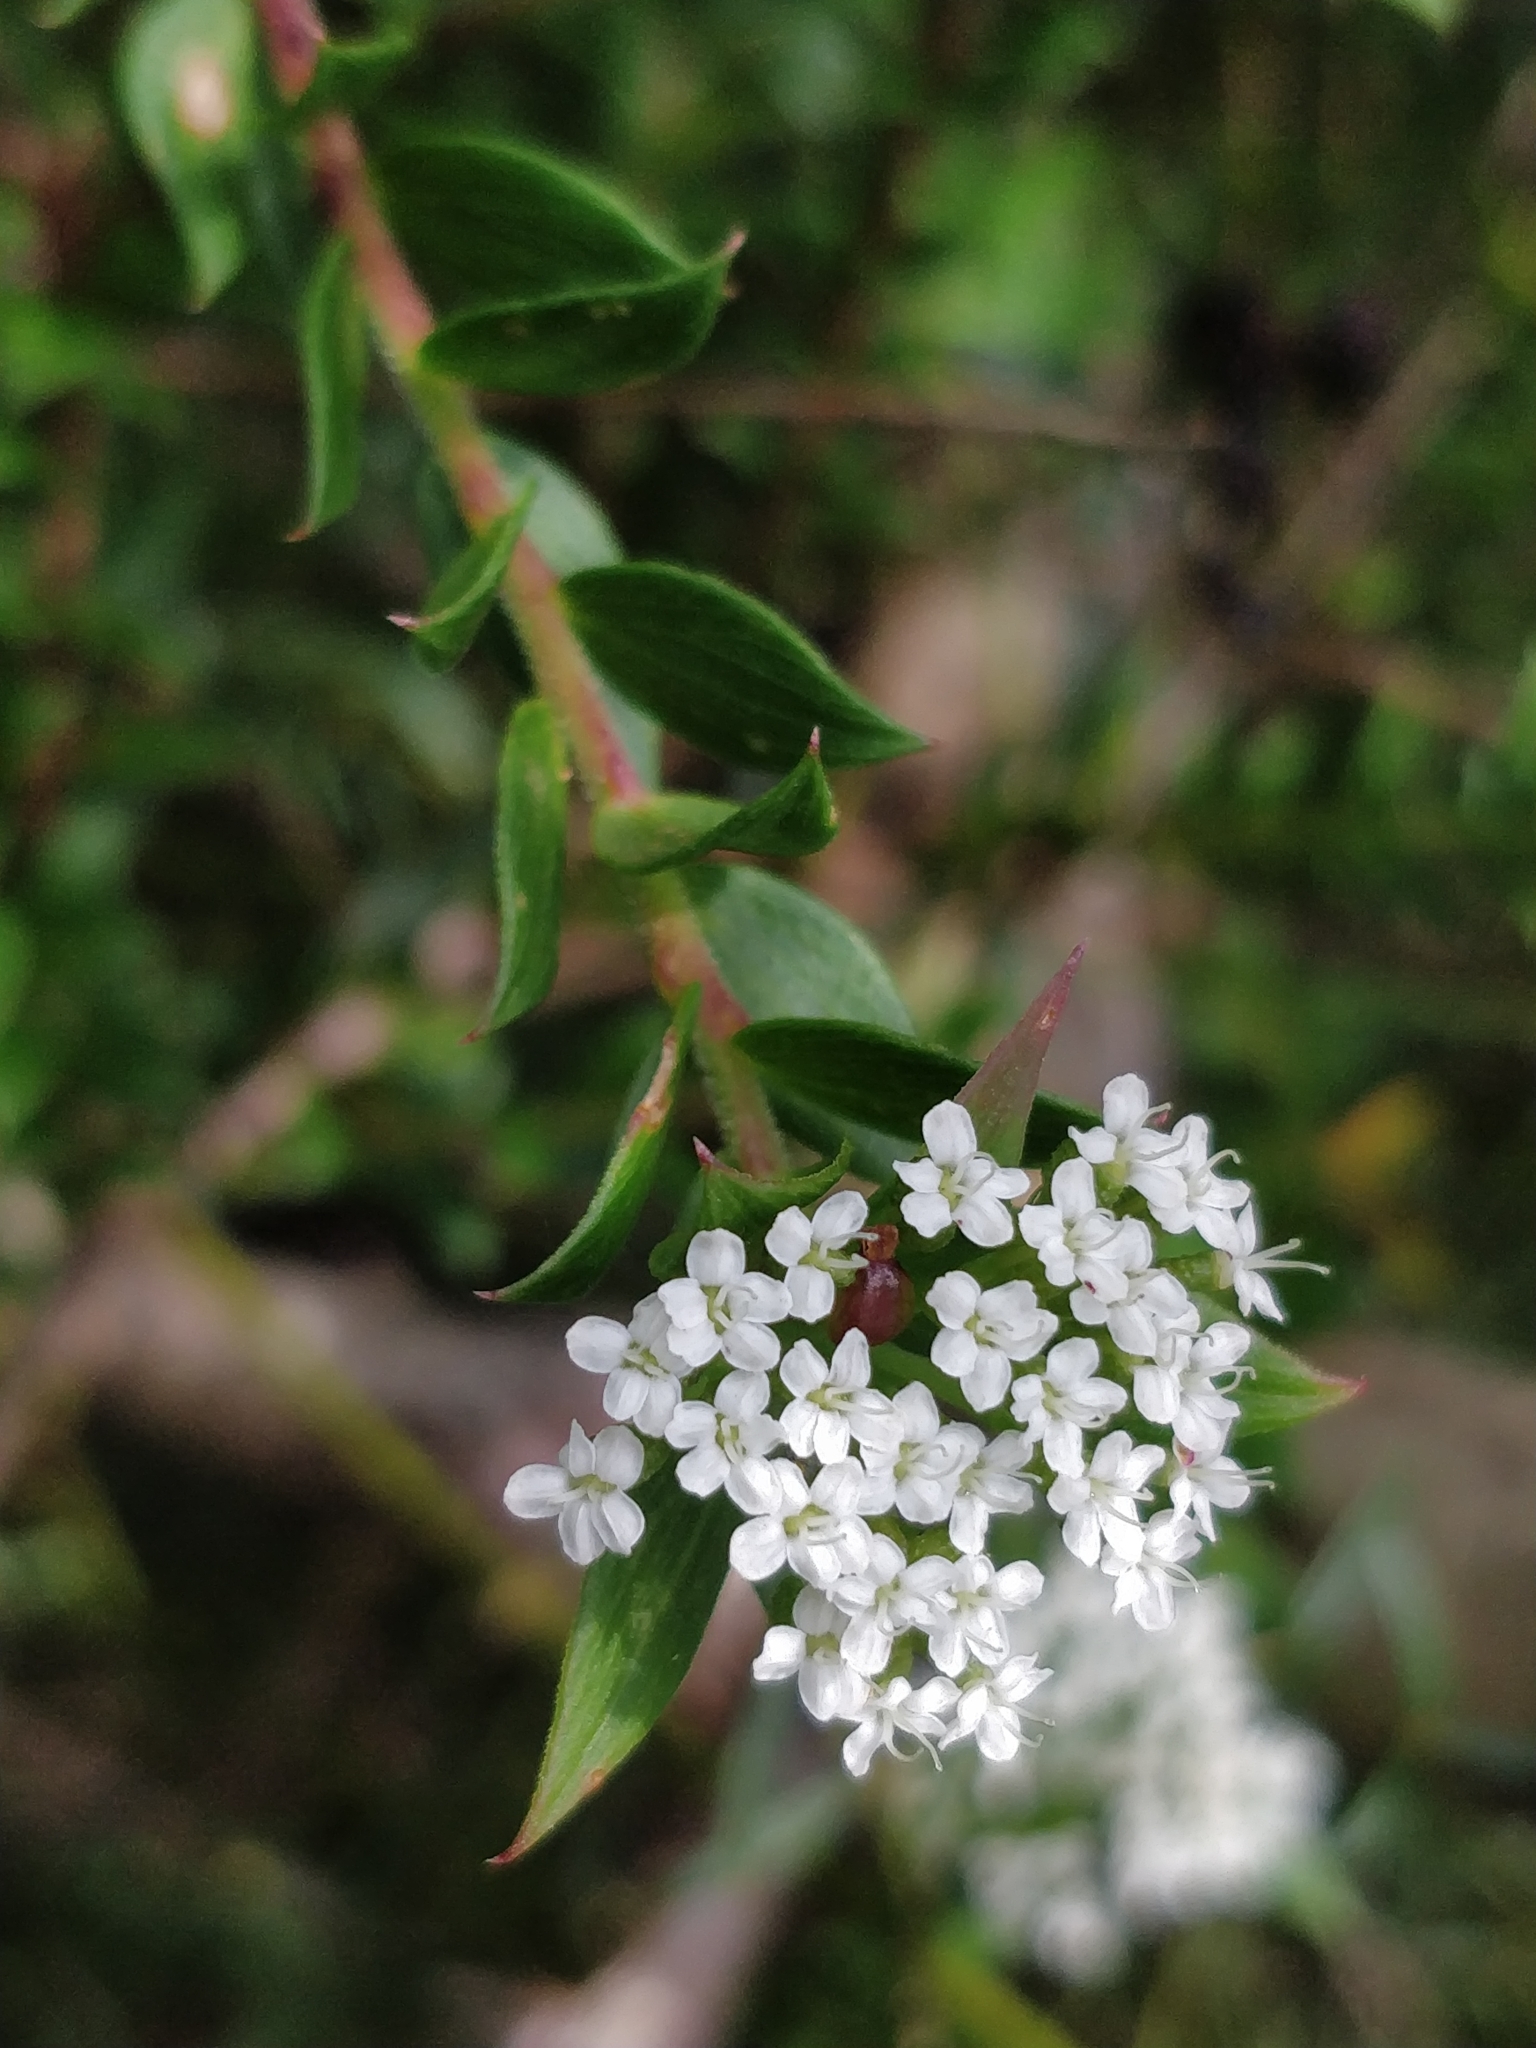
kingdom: Plantae
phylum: Tracheophyta
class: Magnoliopsida
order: Apiales
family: Apiaceae
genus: Platysace
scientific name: Platysace lanceolata
